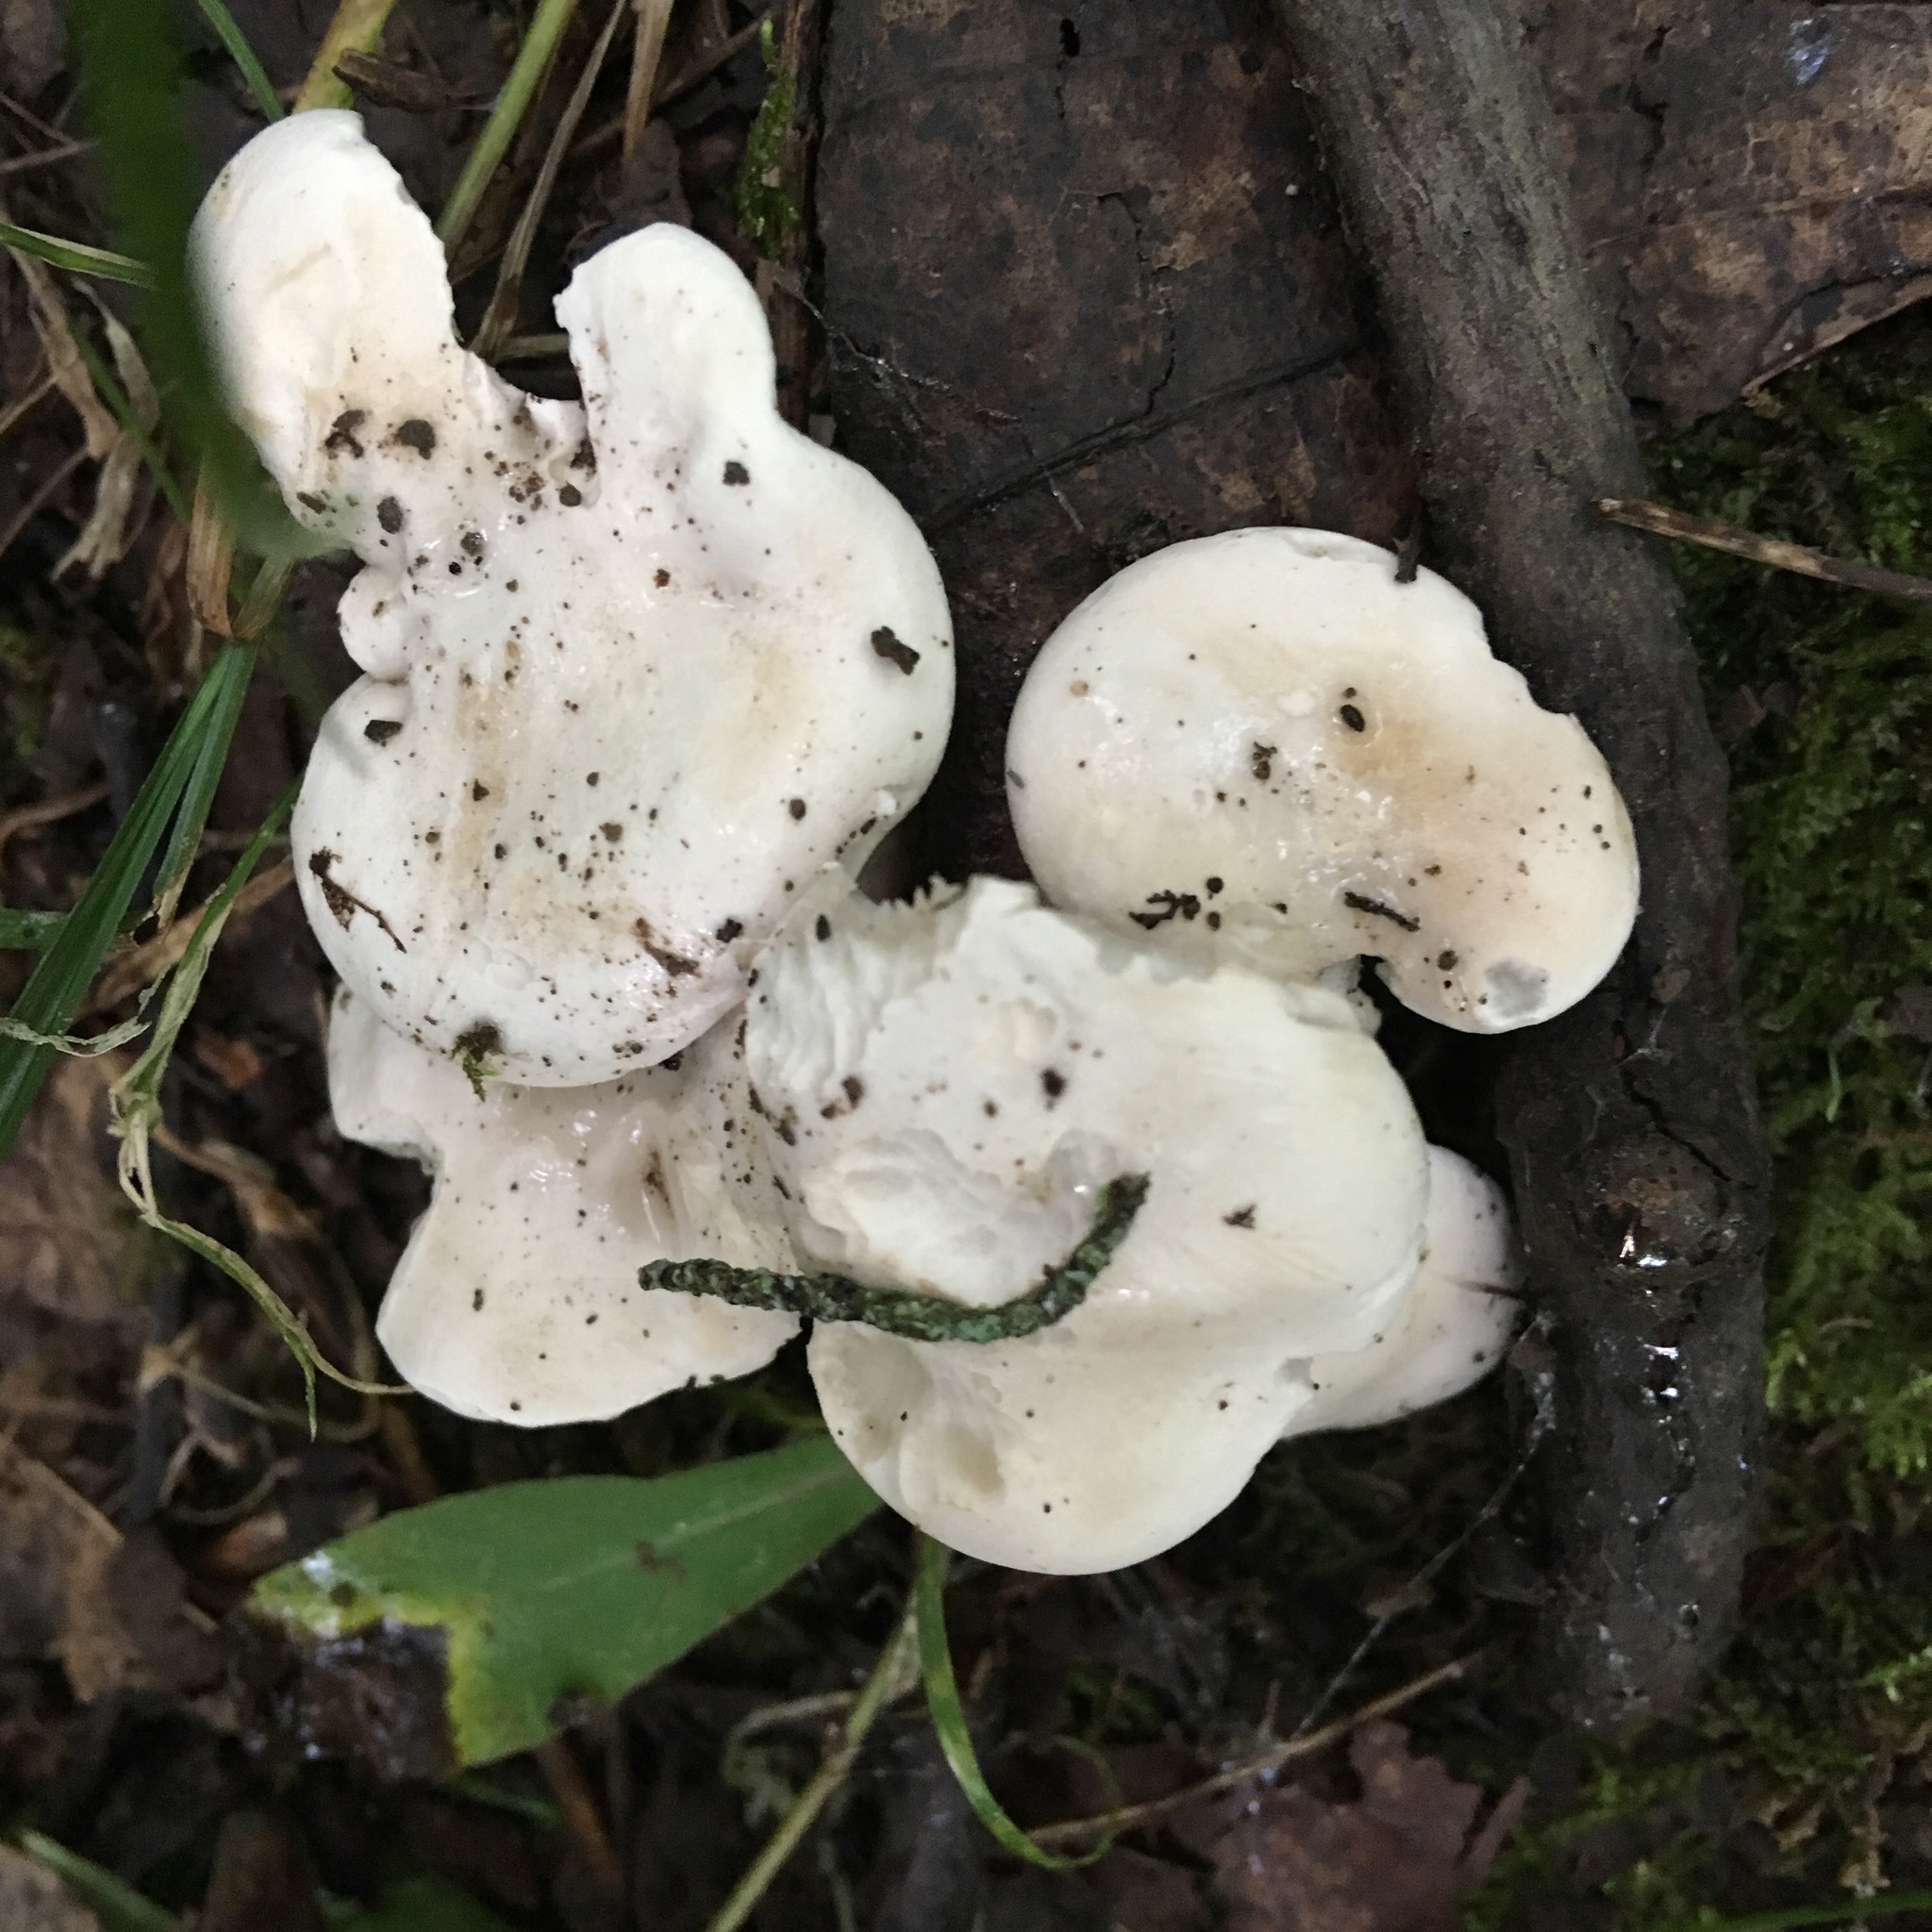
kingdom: Fungi
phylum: Basidiomycota
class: Agaricomycetes
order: Agaricales
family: Entolomataceae
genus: Clitopilus
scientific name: Clitopilus prunulus
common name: The miller
